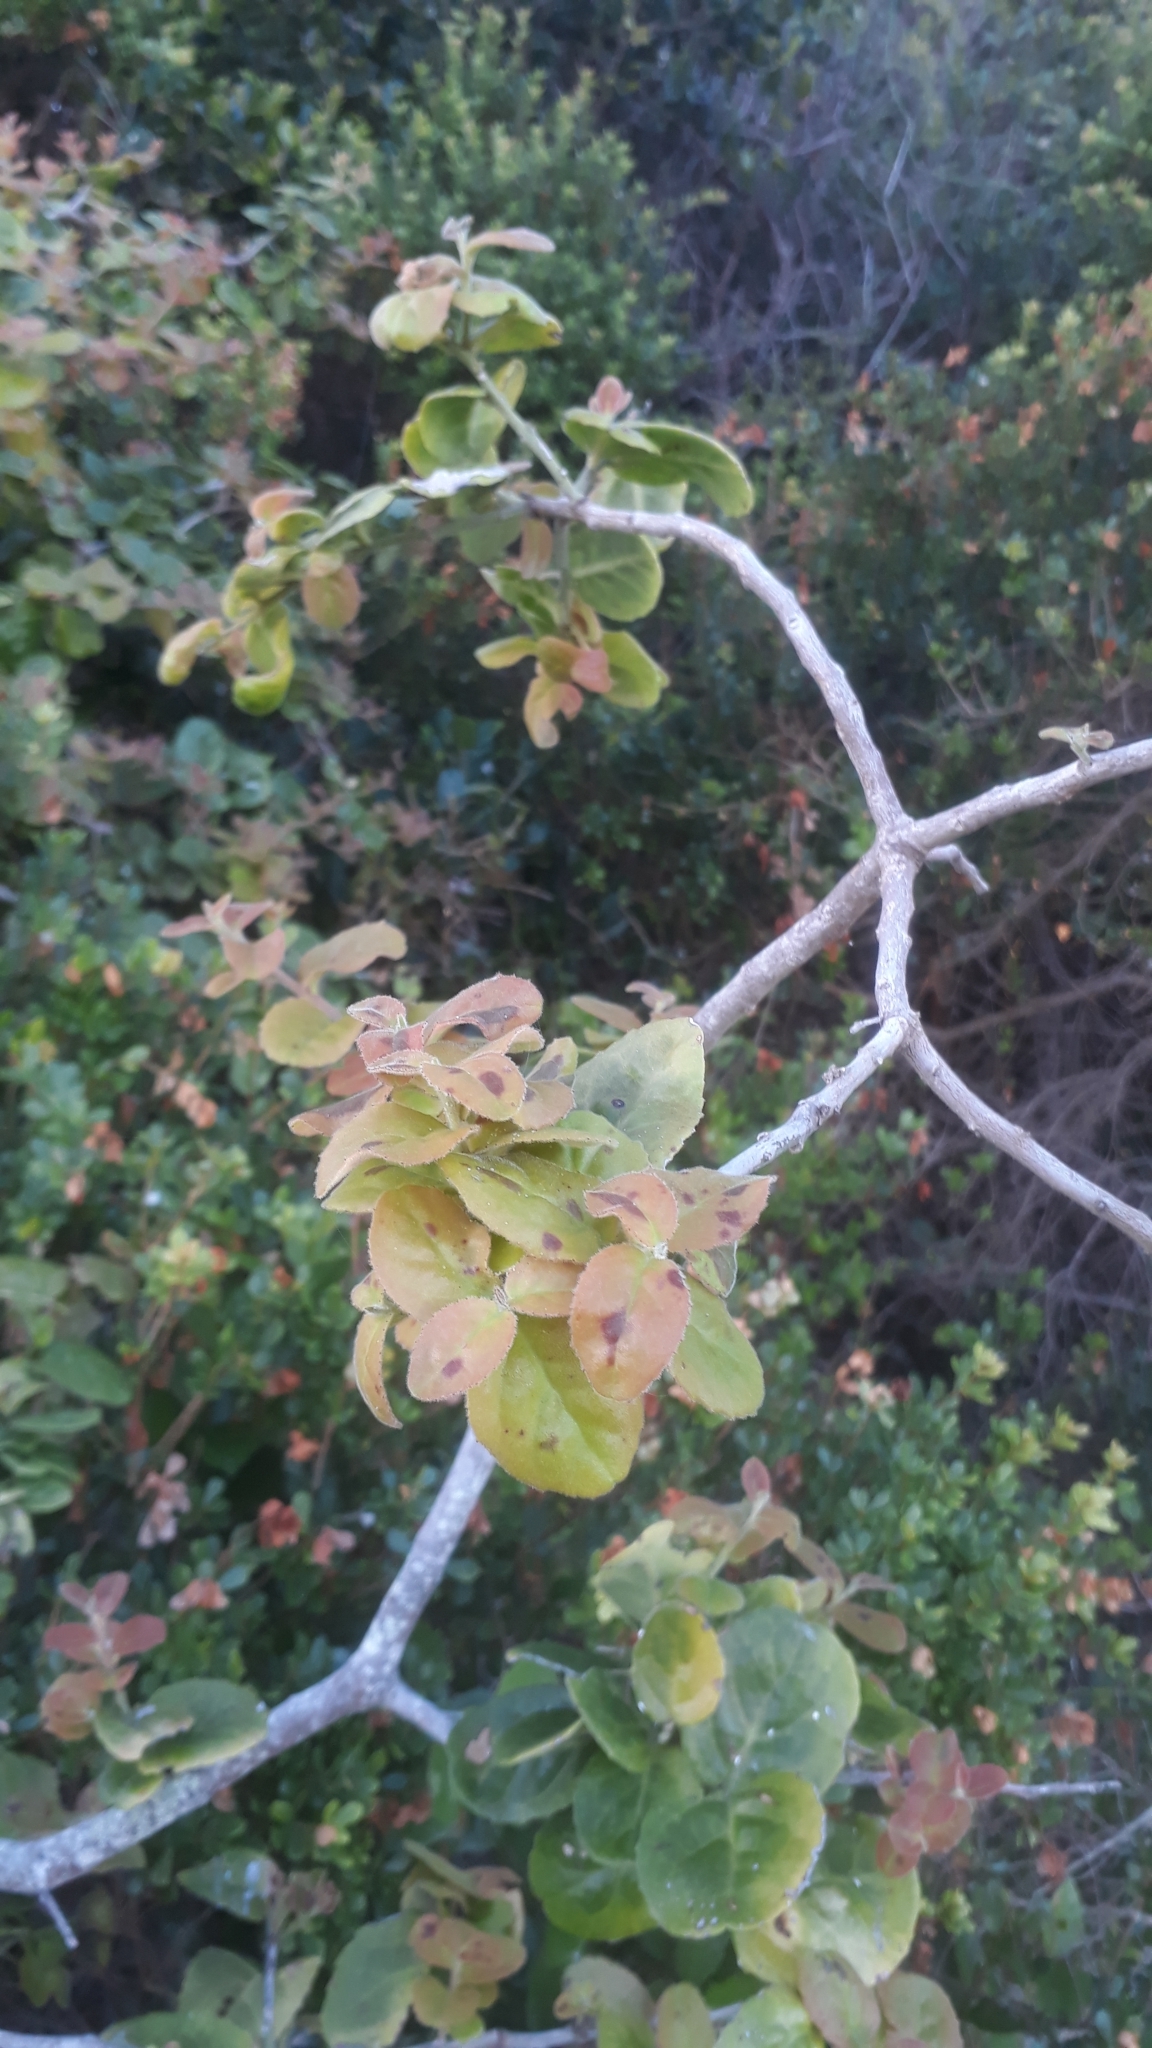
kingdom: Plantae
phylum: Tracheophyta
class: Magnoliopsida
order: Celastrales
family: Celastraceae
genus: Mystroxylon
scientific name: Mystroxylon aethiopicum
